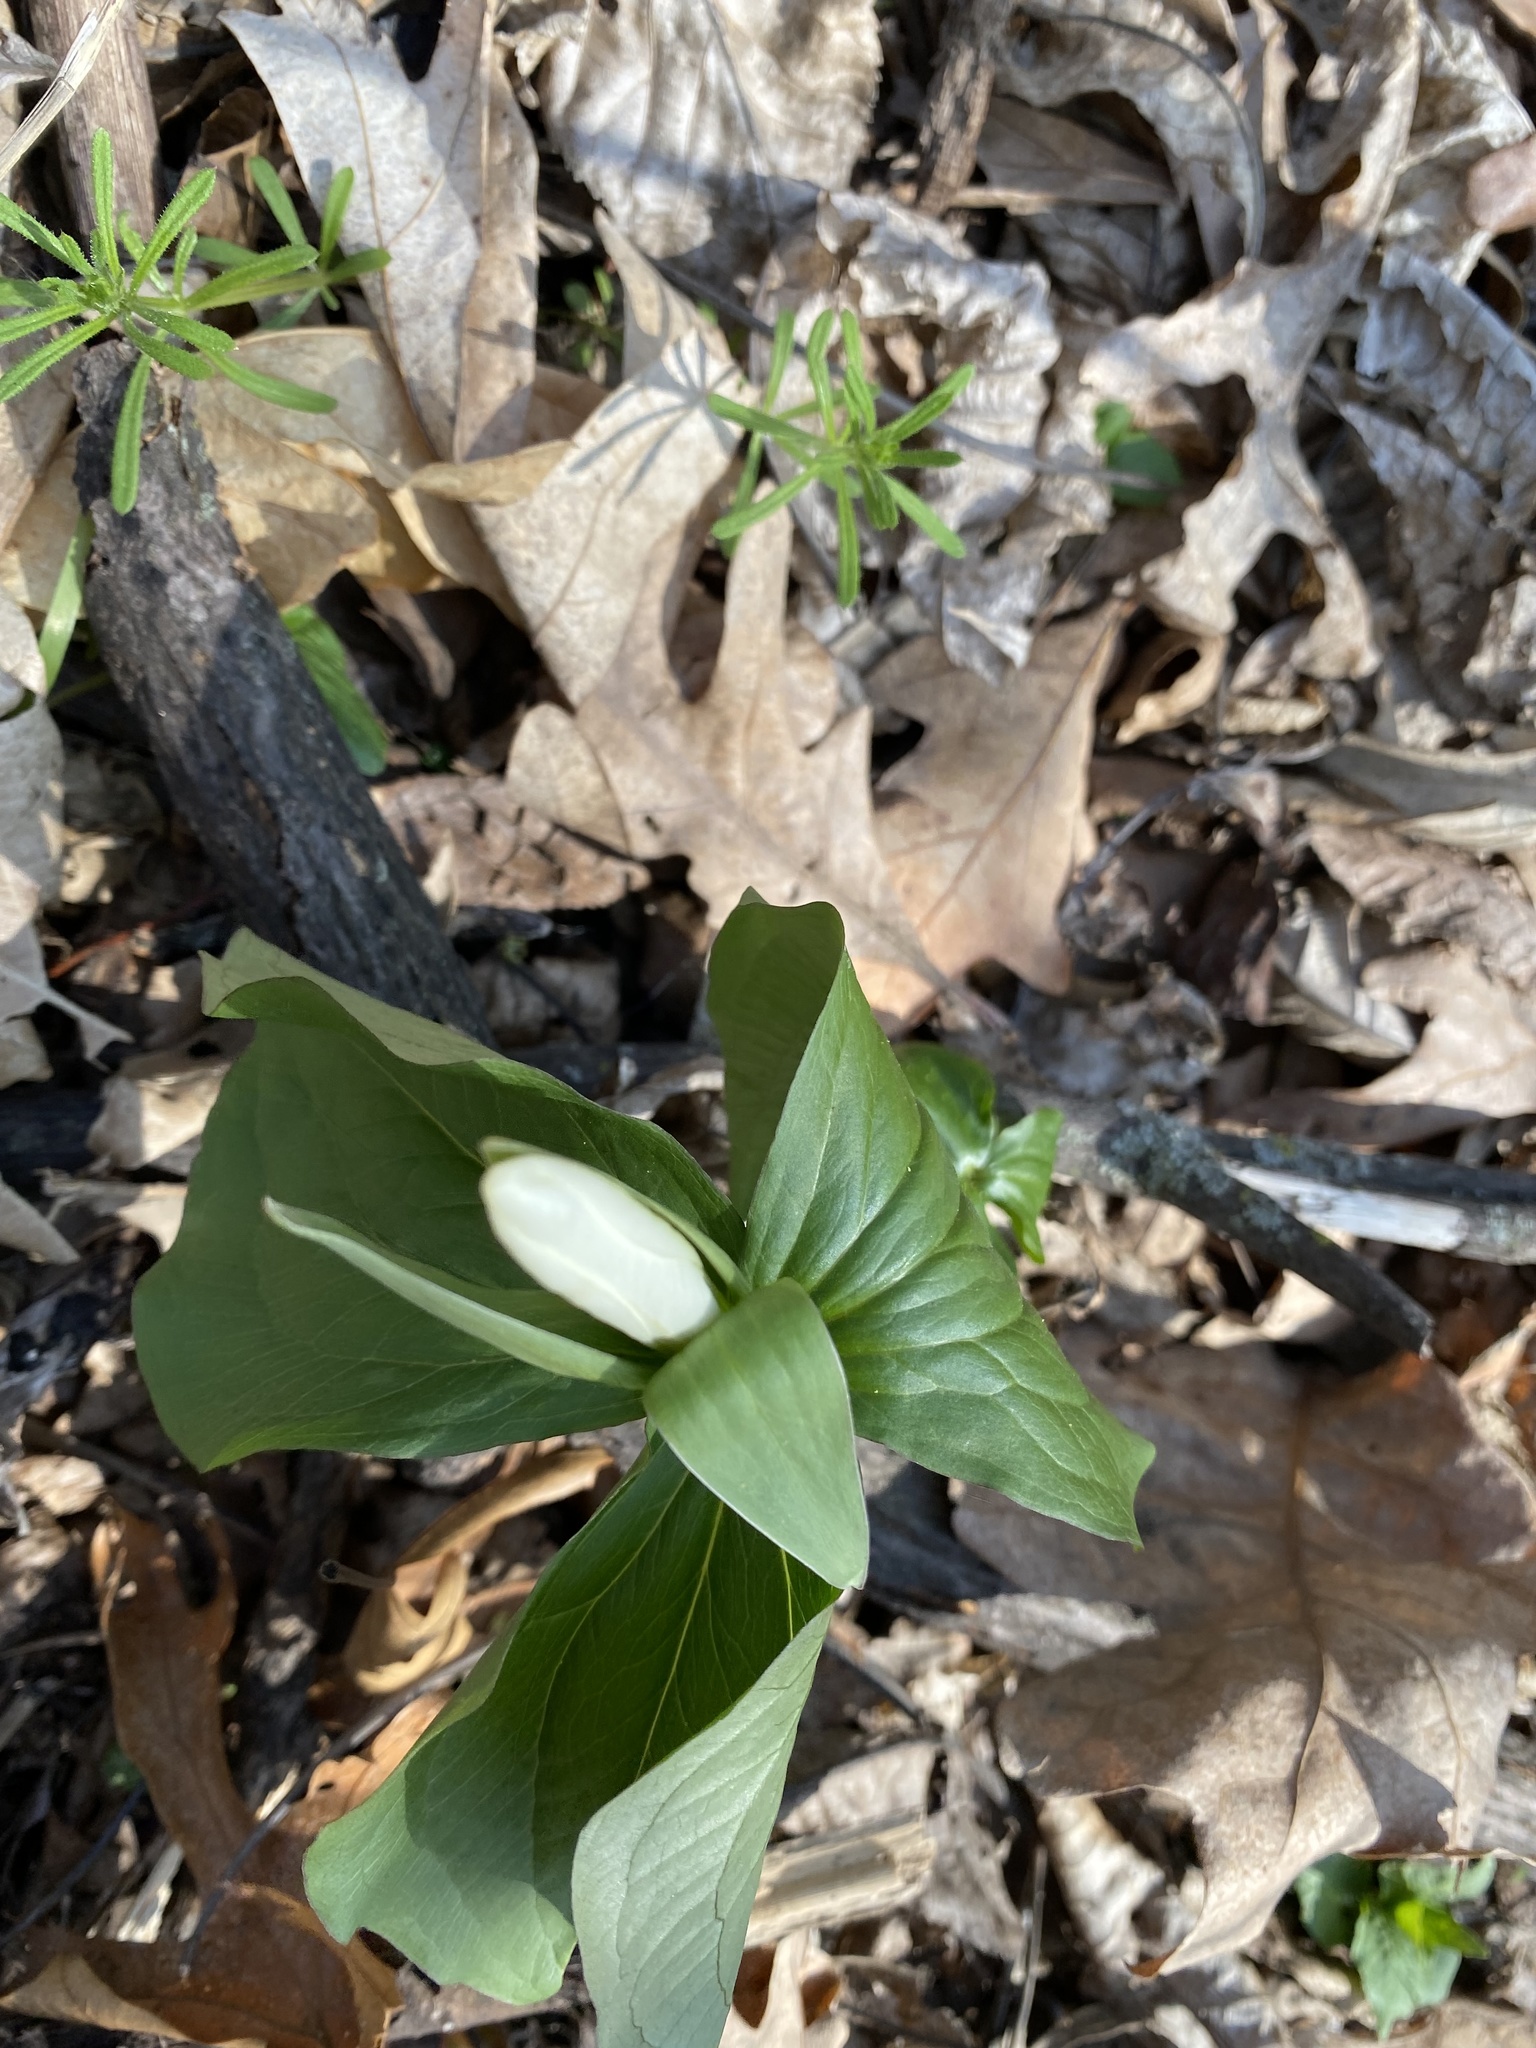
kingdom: Plantae
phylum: Tracheophyta
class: Liliopsida
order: Liliales
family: Melanthiaceae
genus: Trillium
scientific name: Trillium grandiflorum
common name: Great white trillium
